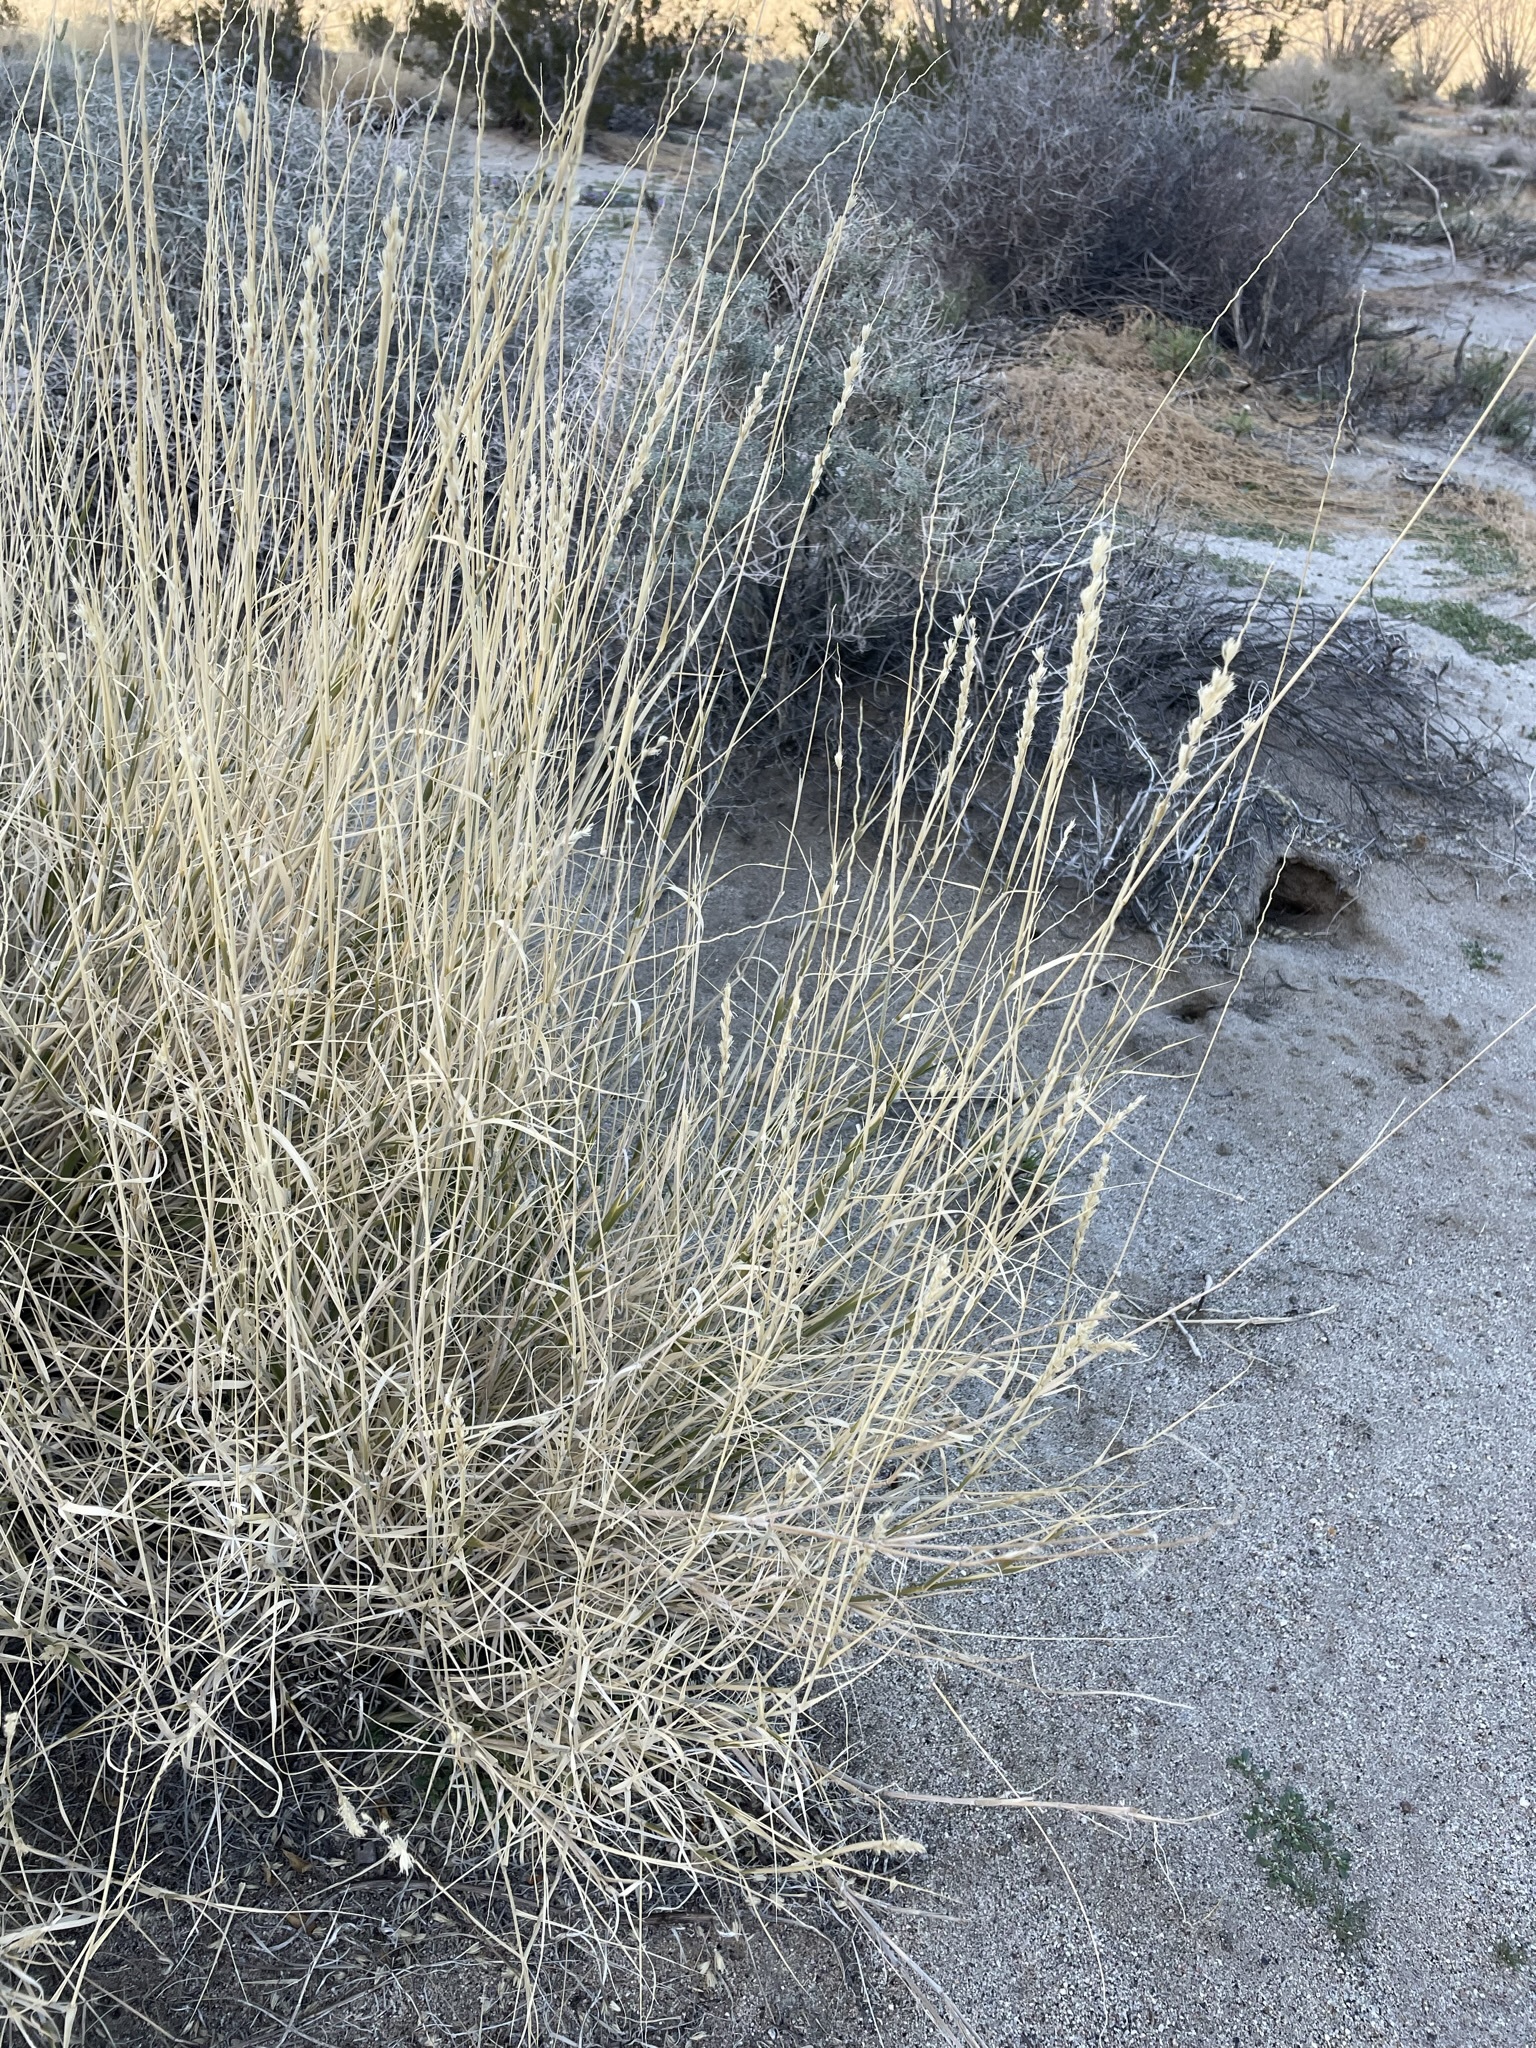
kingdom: Plantae
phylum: Tracheophyta
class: Liliopsida
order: Poales
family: Poaceae
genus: Hilaria
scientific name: Hilaria rigida
